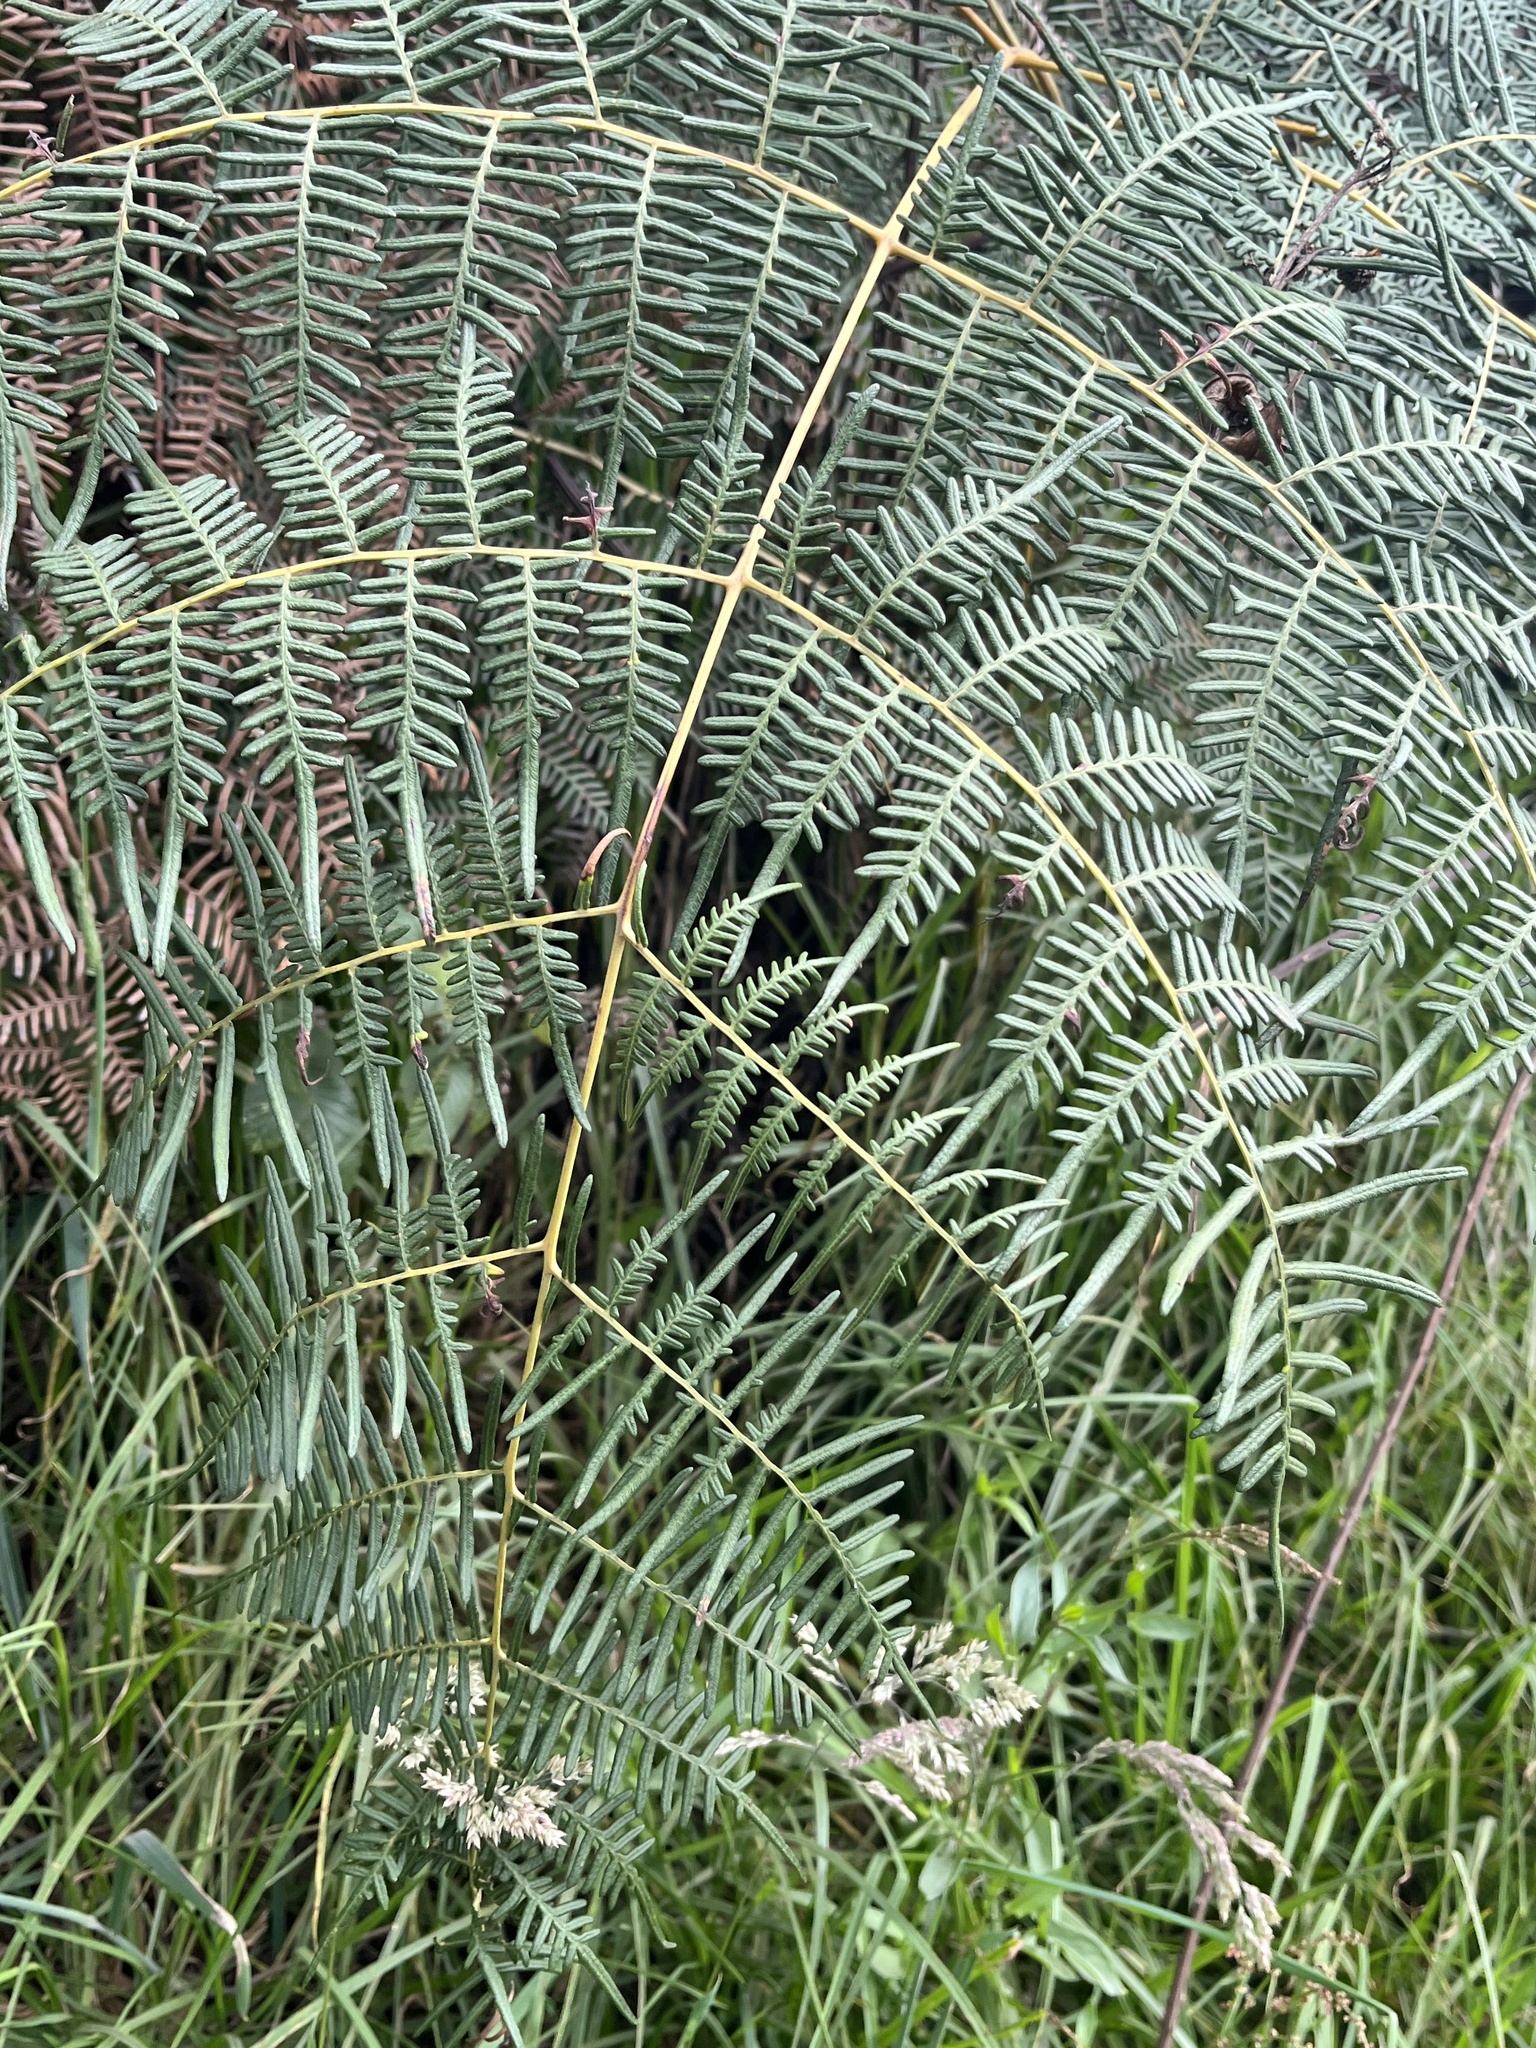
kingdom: Plantae
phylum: Tracheophyta
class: Polypodiopsida
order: Polypodiales
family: Dennstaedtiaceae
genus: Pteridium
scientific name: Pteridium esculentum
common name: Bracken fern
